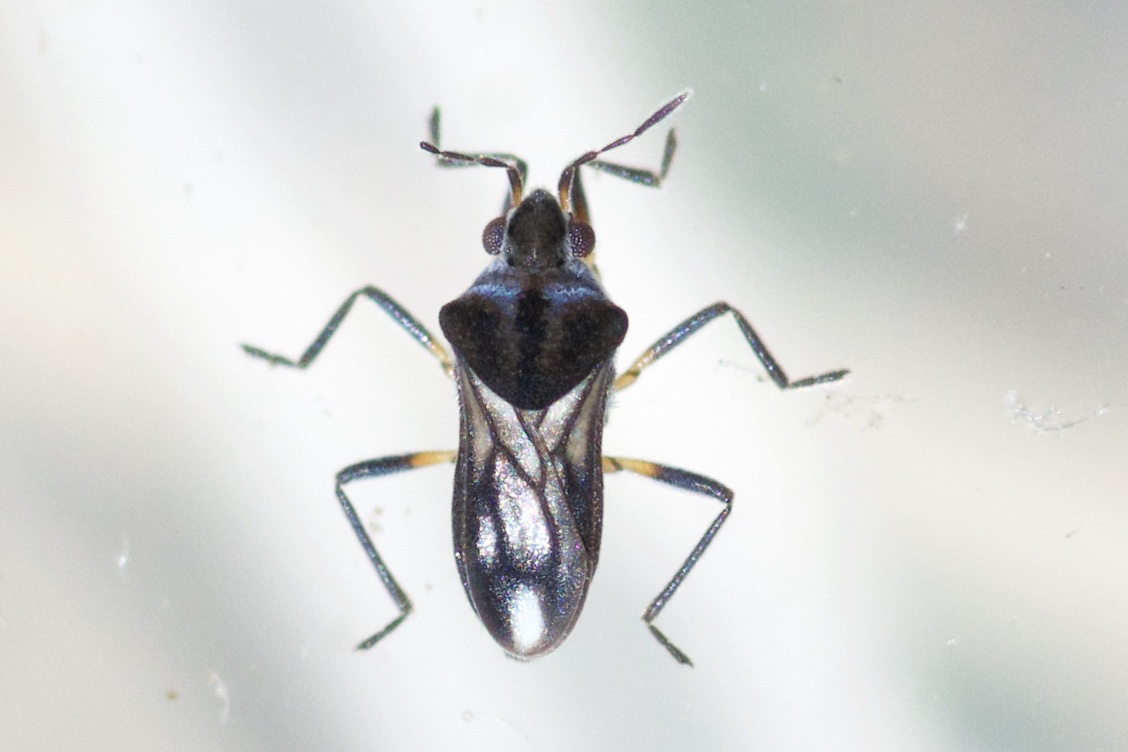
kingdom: Animalia
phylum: Arthropoda
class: Insecta
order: Hemiptera
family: Veliidae
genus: Microvelia
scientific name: Microvelia buenoi
